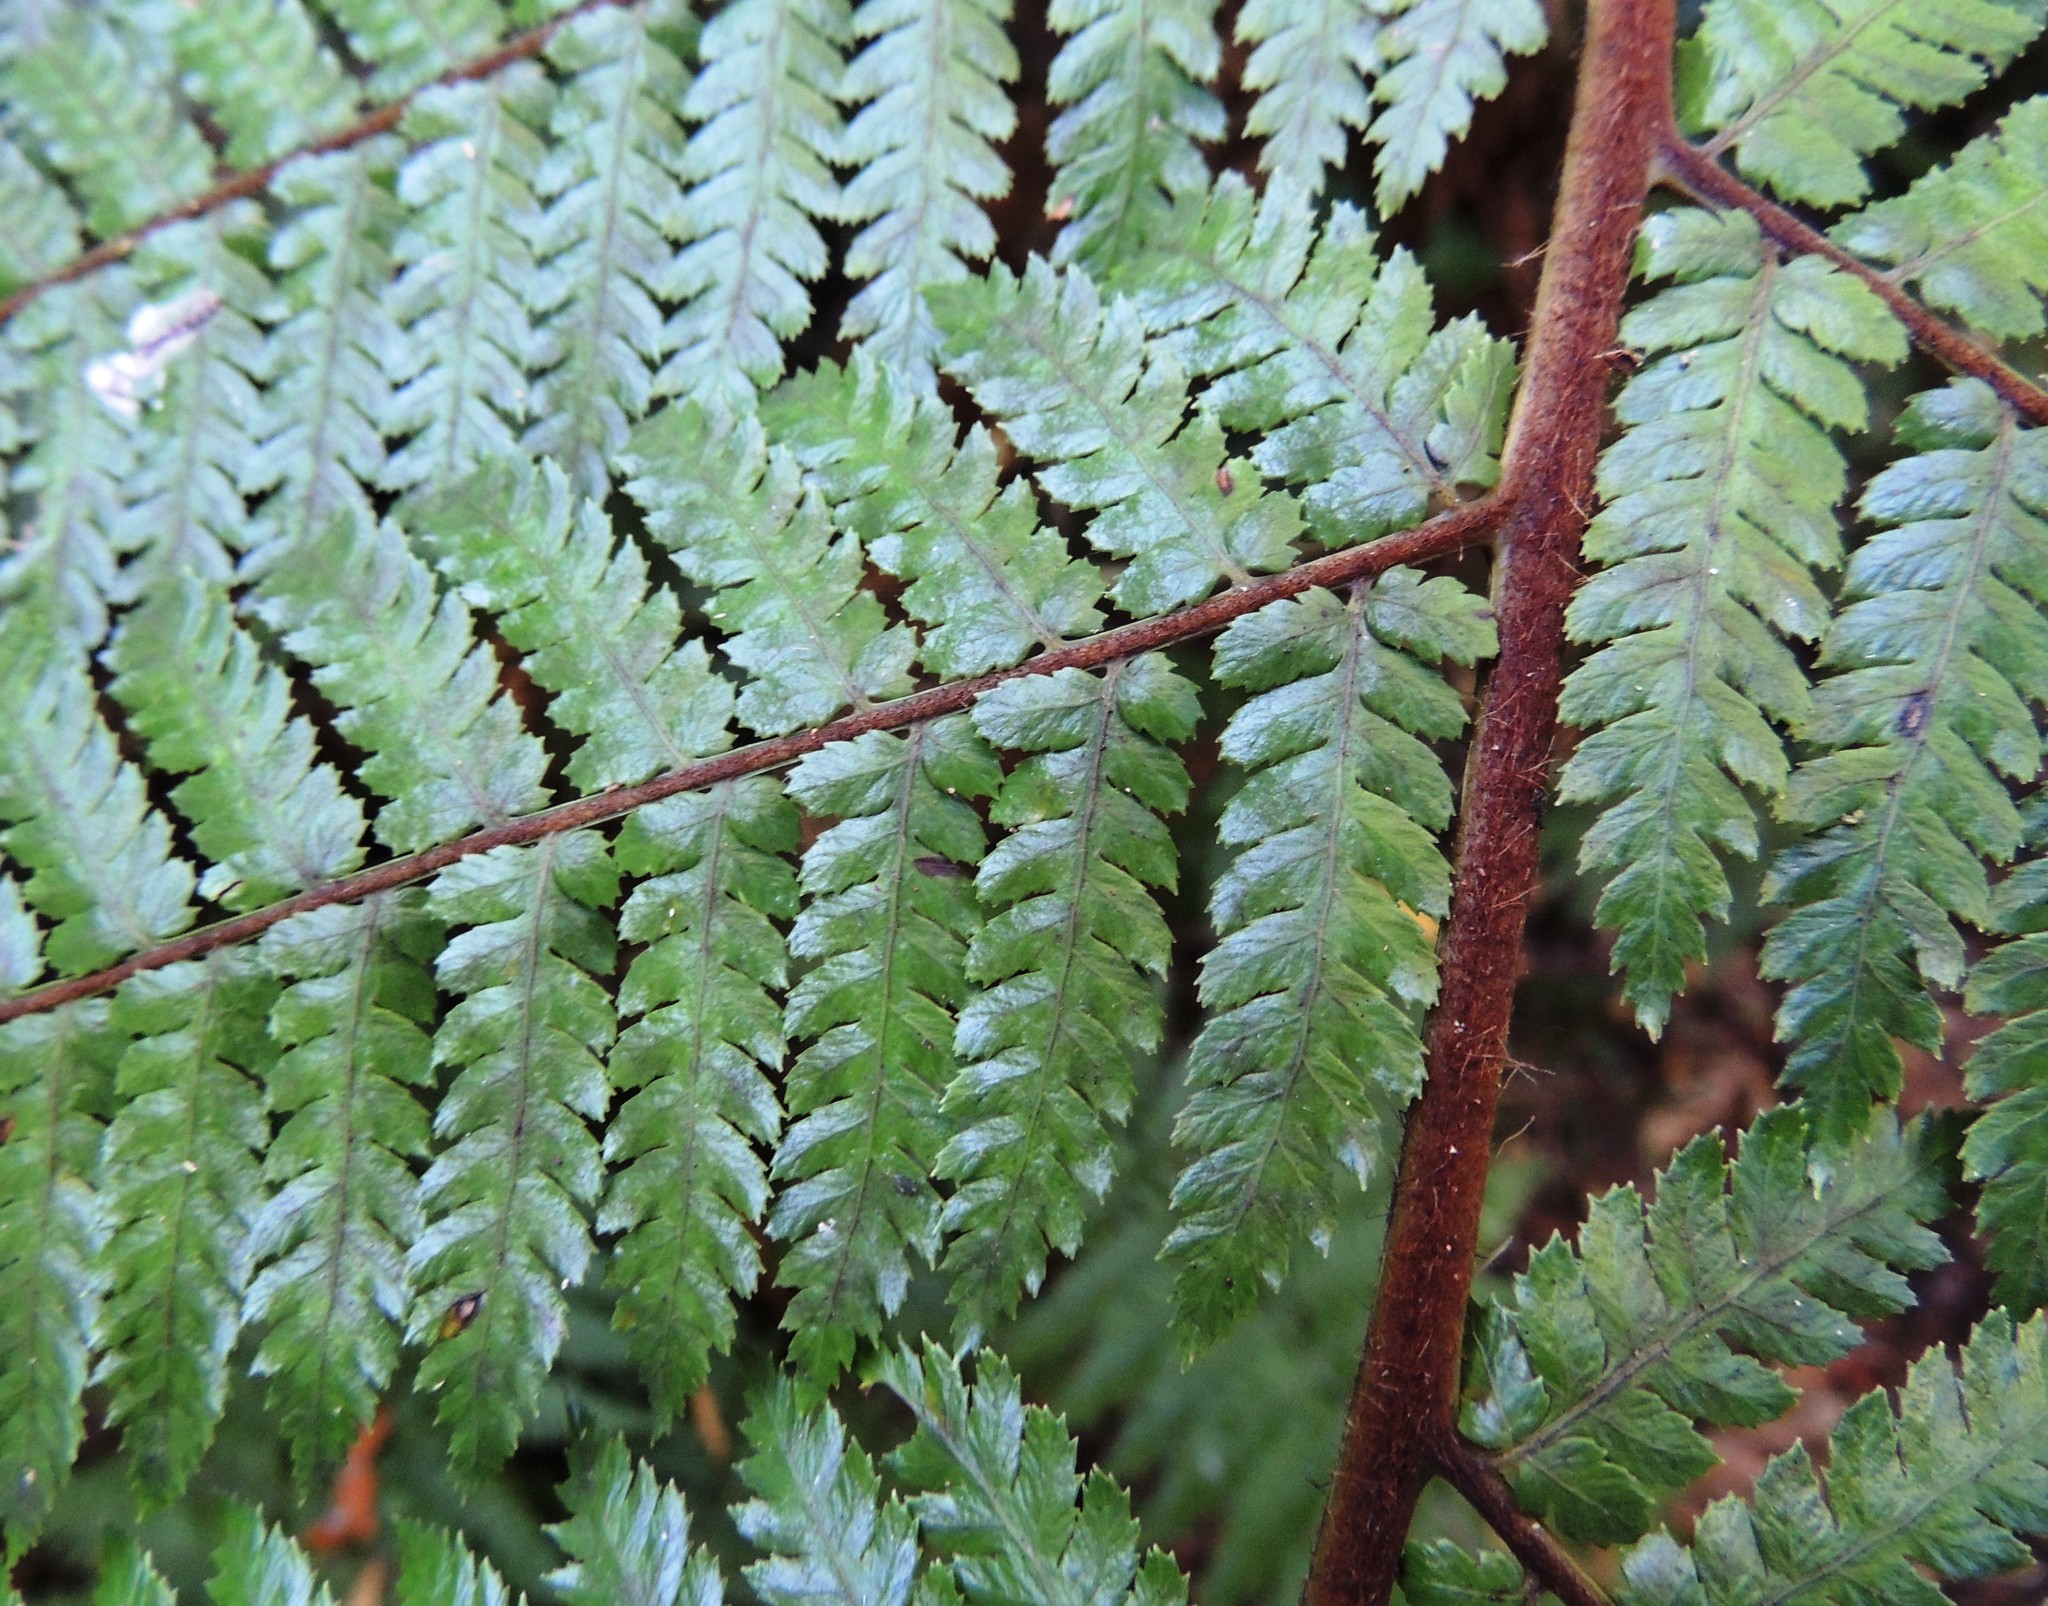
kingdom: Plantae
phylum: Tracheophyta
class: Polypodiopsida
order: Cyatheales
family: Dicksoniaceae
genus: Dicksonia
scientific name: Dicksonia squarrosa
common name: Hard treefern
